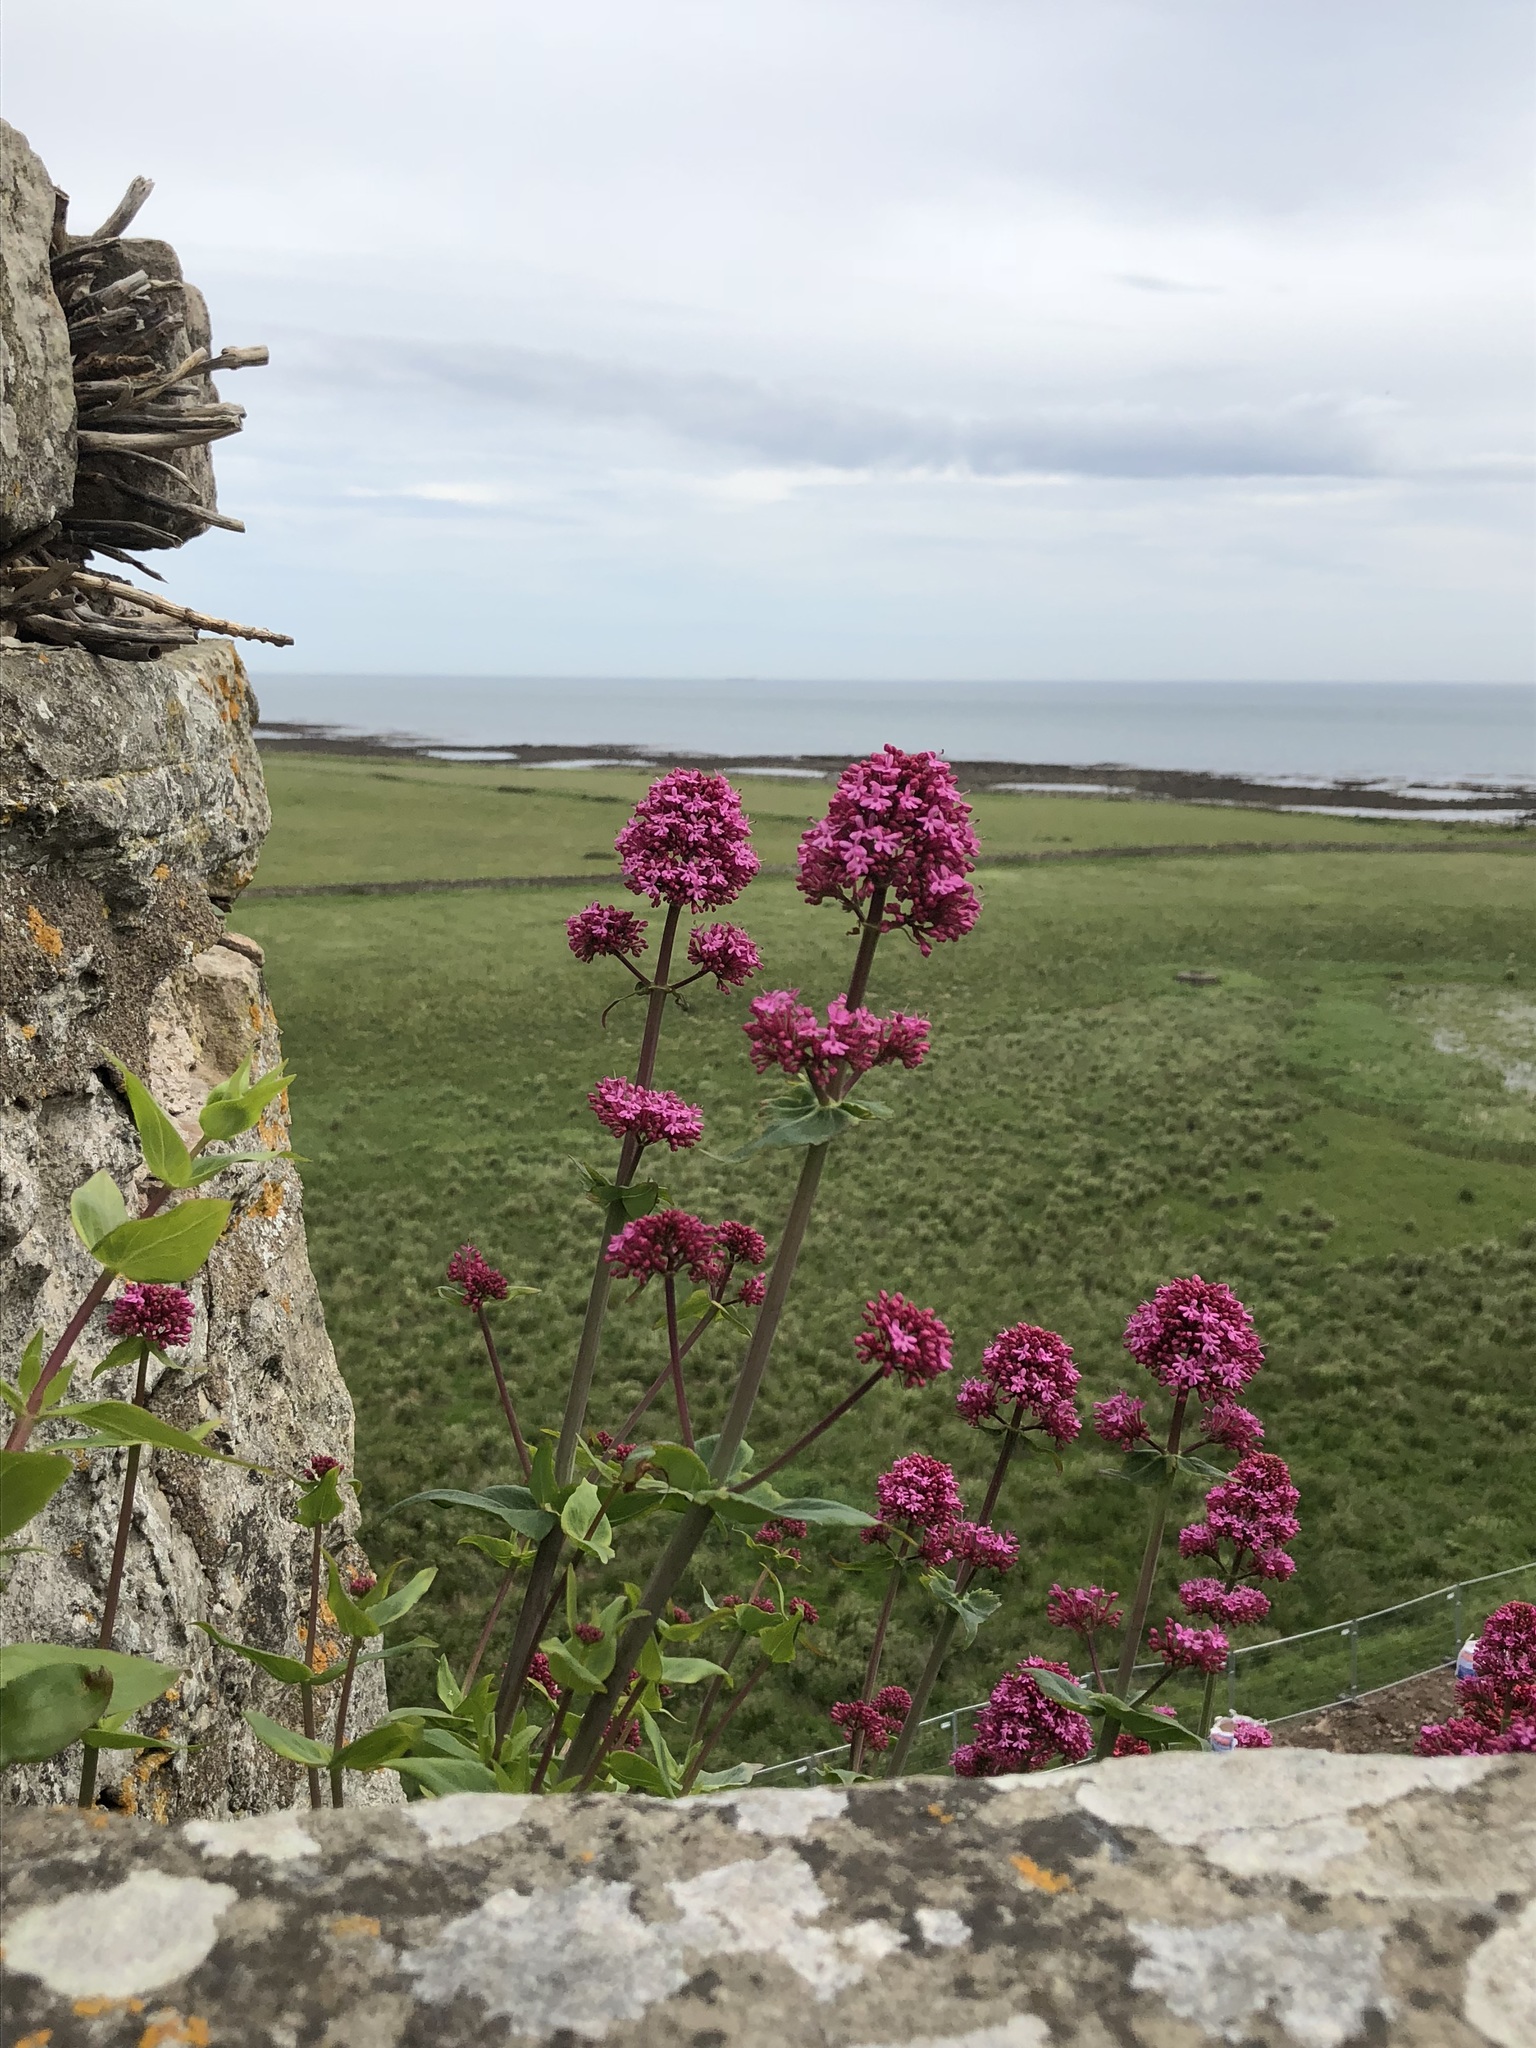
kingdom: Plantae
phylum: Tracheophyta
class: Magnoliopsida
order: Dipsacales
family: Caprifoliaceae
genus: Centranthus
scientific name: Centranthus ruber
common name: Red valerian
